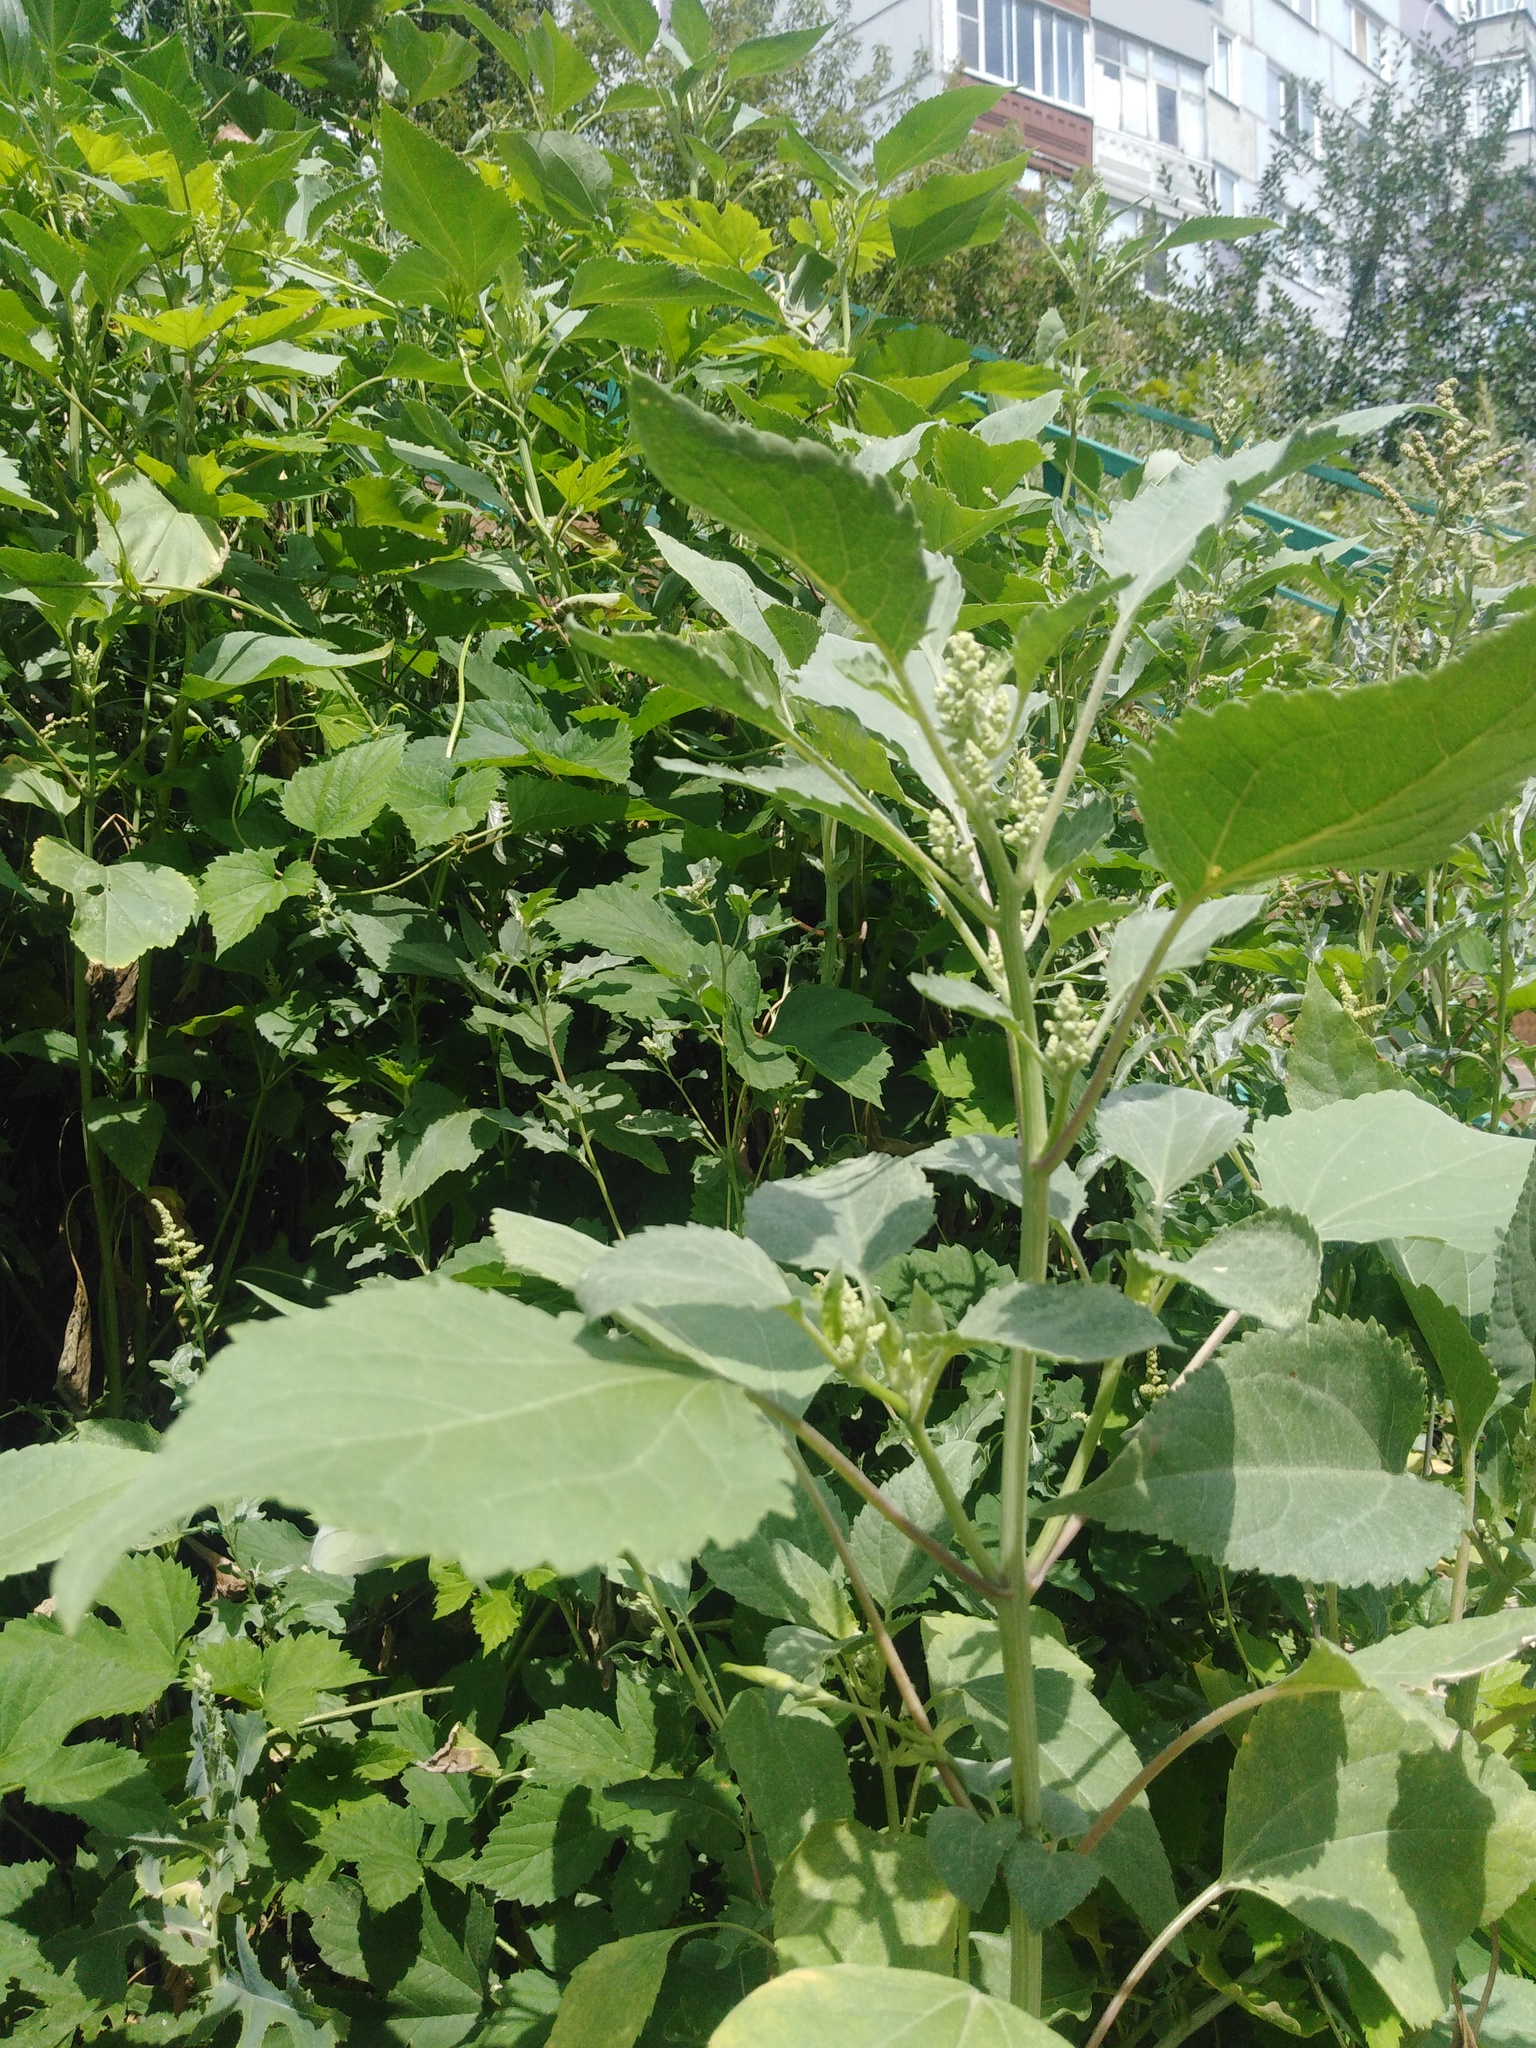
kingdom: Plantae
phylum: Tracheophyta
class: Magnoliopsida
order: Asterales
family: Asteraceae
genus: Cyclachaena
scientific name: Cyclachaena xanthiifolia
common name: Giant sumpweed
